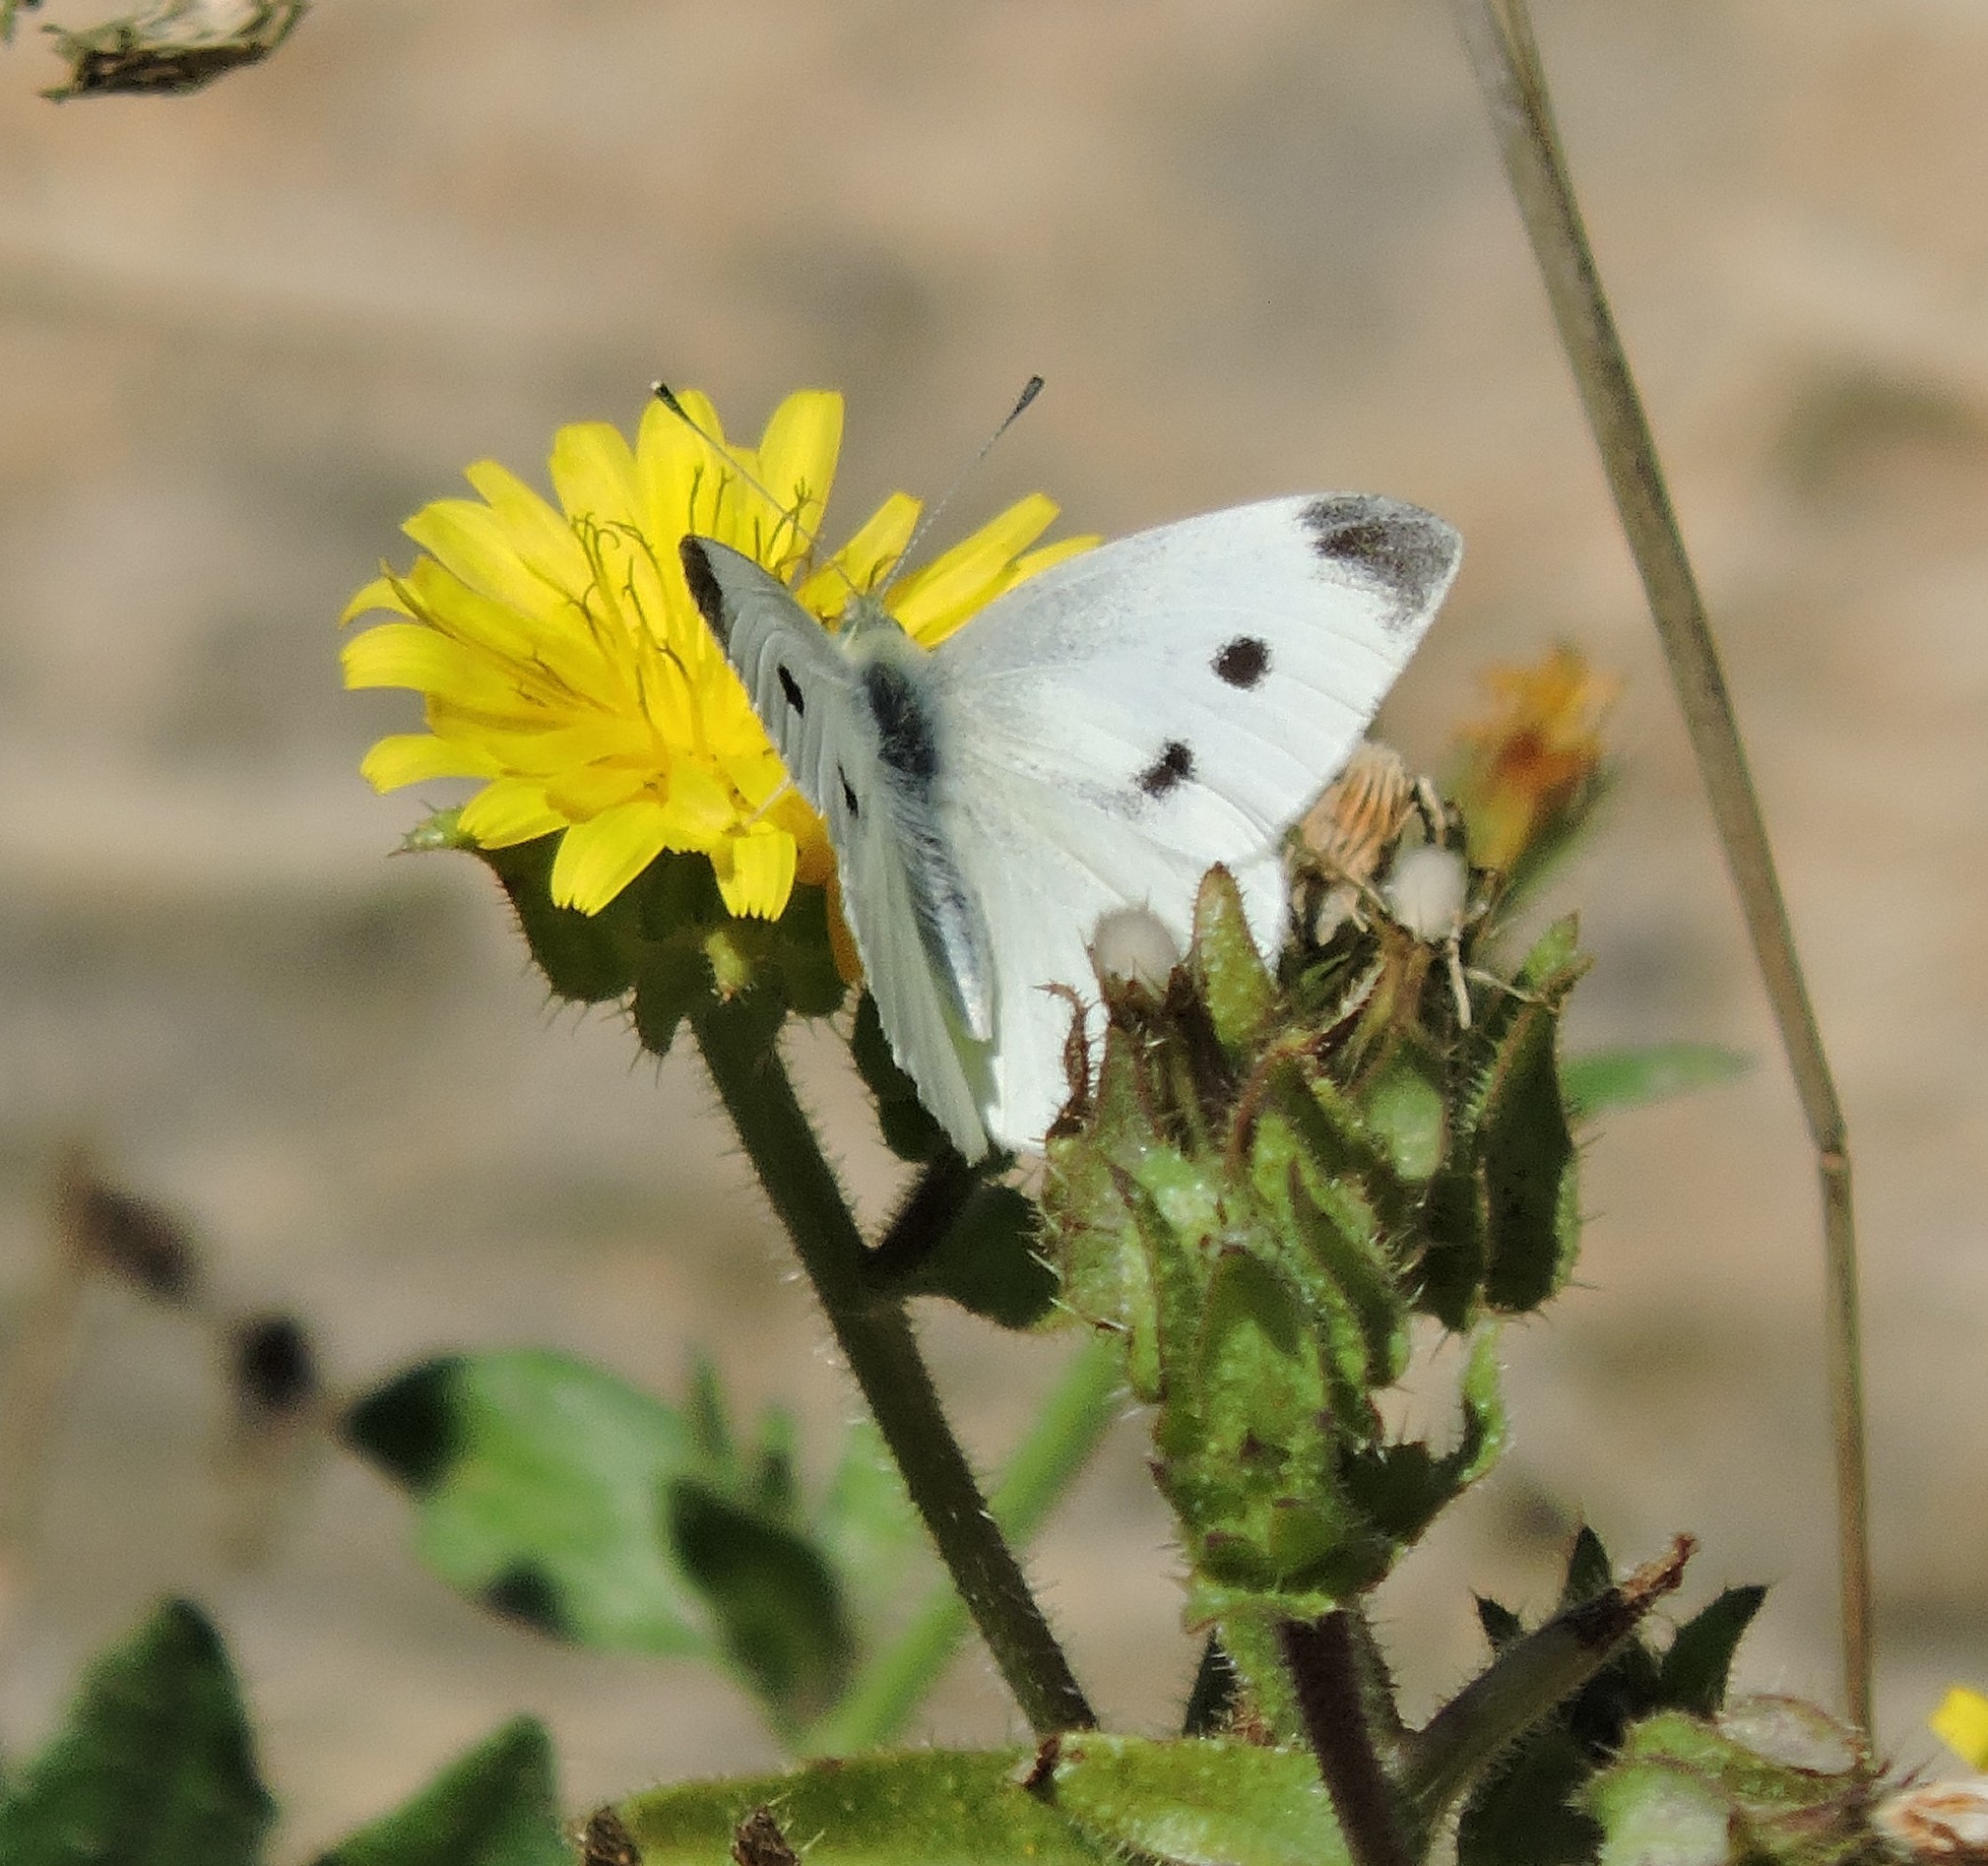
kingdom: Animalia
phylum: Arthropoda
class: Insecta
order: Lepidoptera
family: Pieridae
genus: Pieris
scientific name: Pieris rapae
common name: Small white
